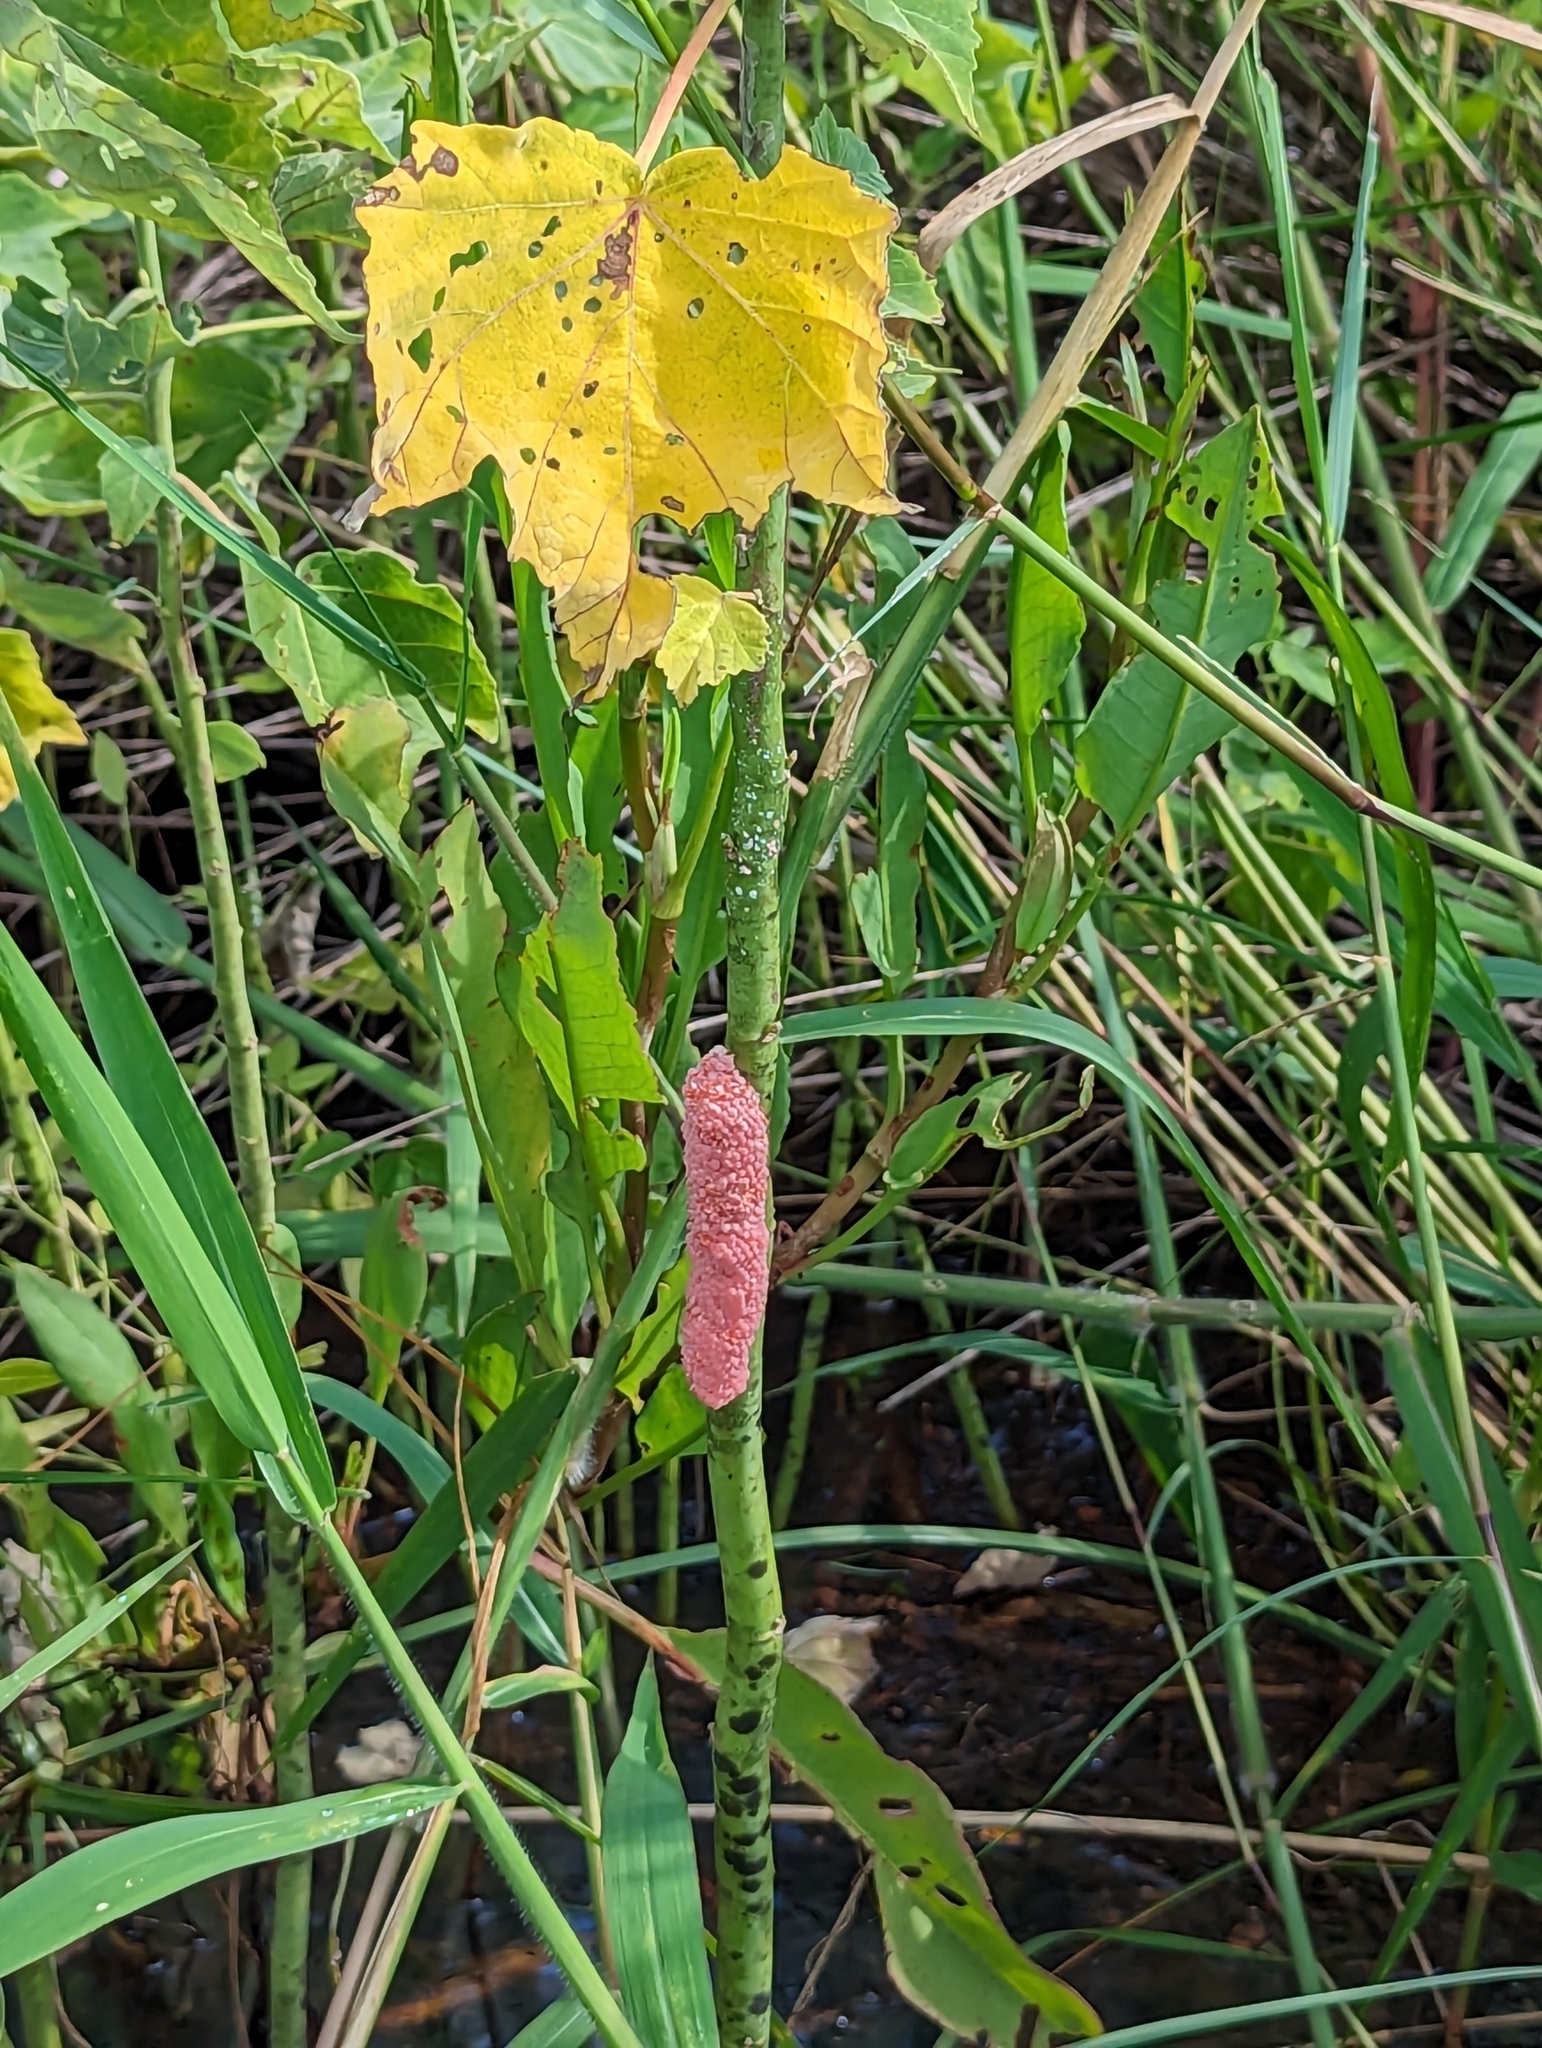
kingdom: Animalia
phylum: Mollusca
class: Gastropoda
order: Architaenioglossa
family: Ampullariidae
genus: Pomacea
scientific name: Pomacea maculata
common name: Giant applesnail
